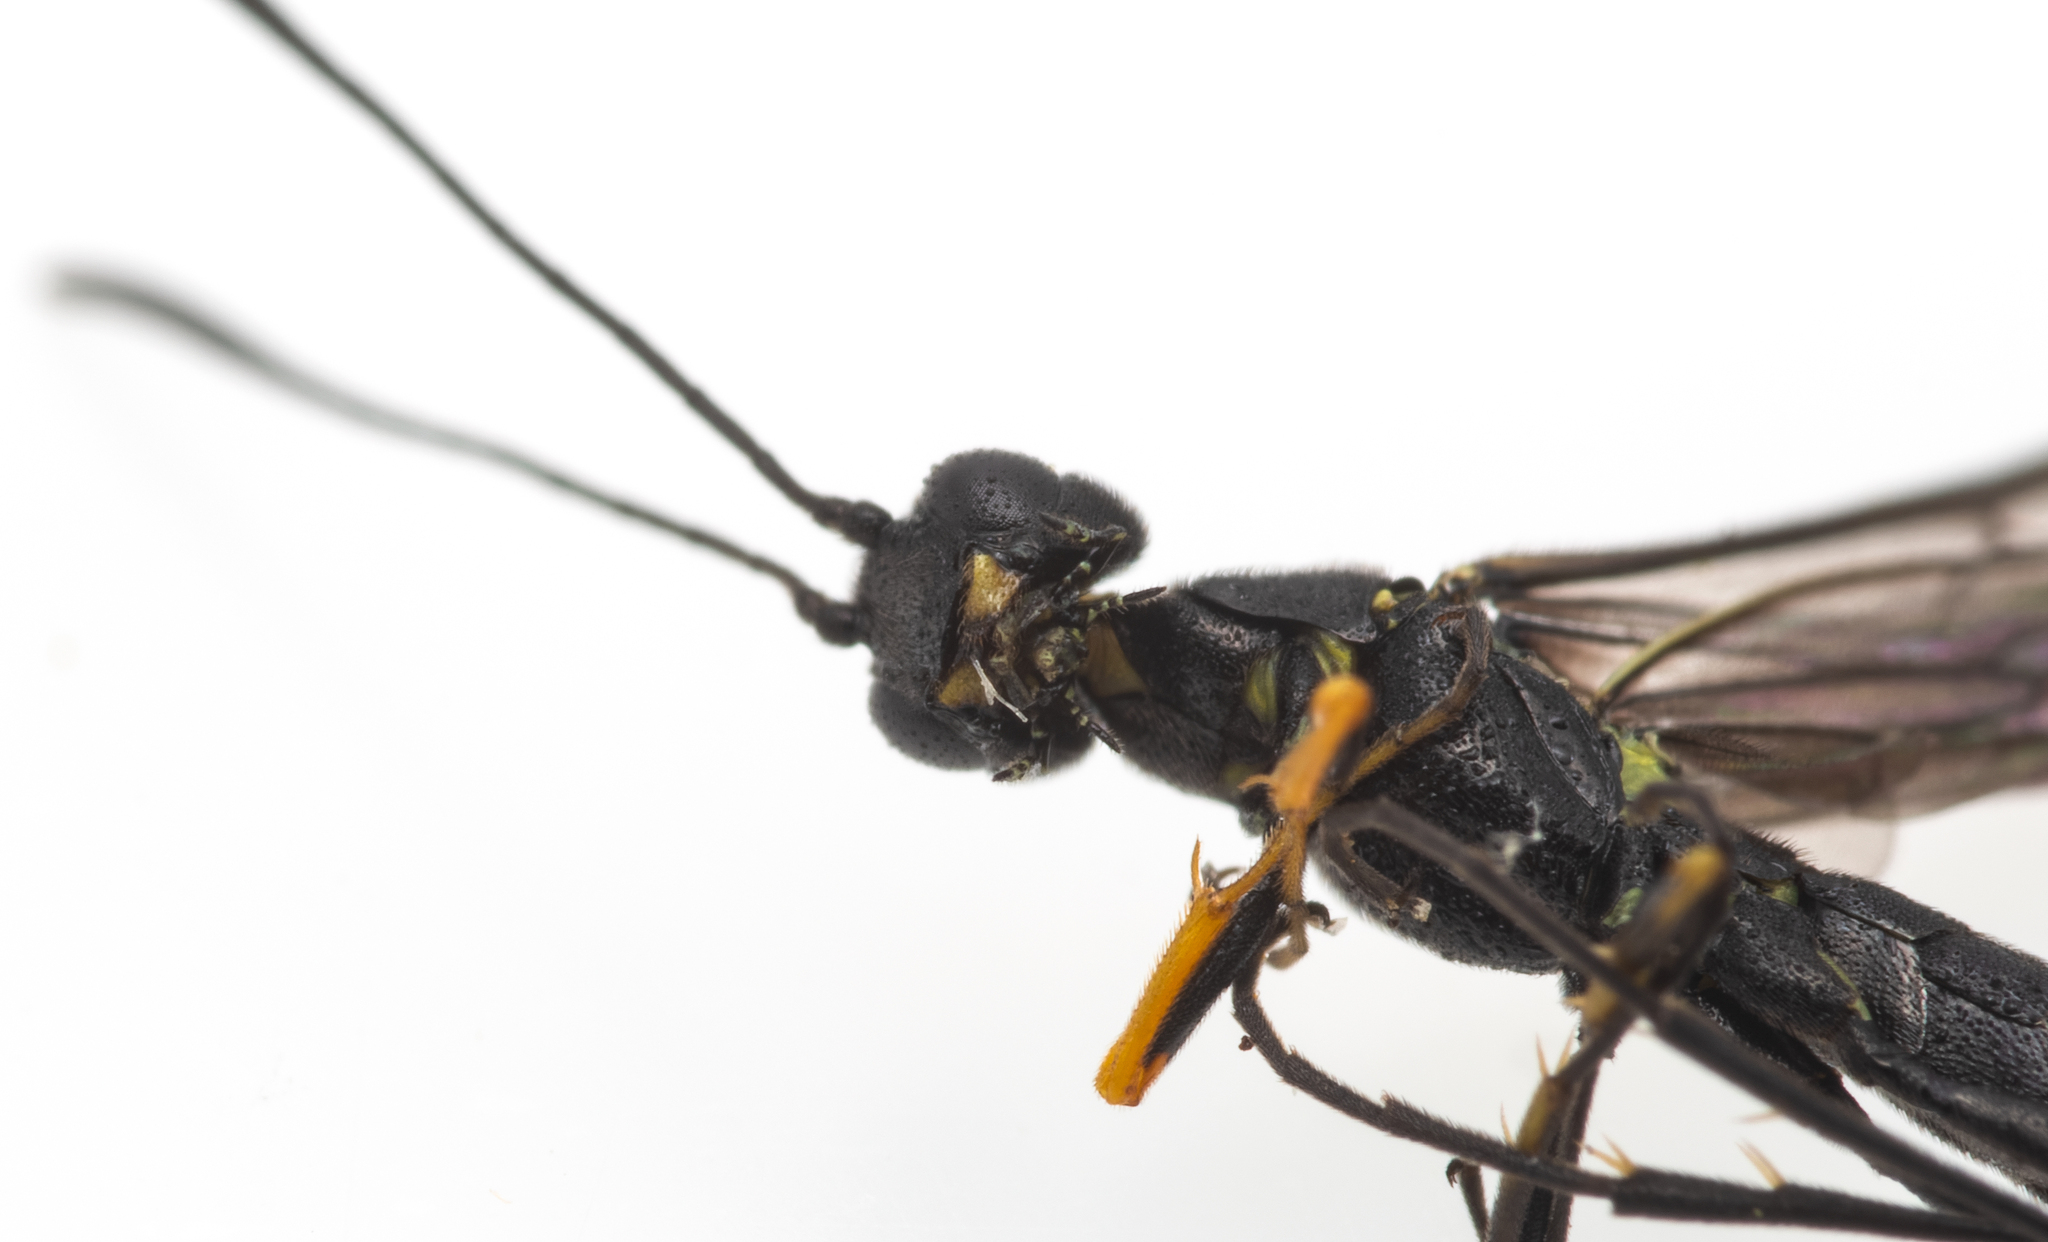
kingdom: Animalia
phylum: Arthropoda
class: Insecta
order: Hymenoptera
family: Cephidae
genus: Calameuta
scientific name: Calameuta haemorrhoidalis
